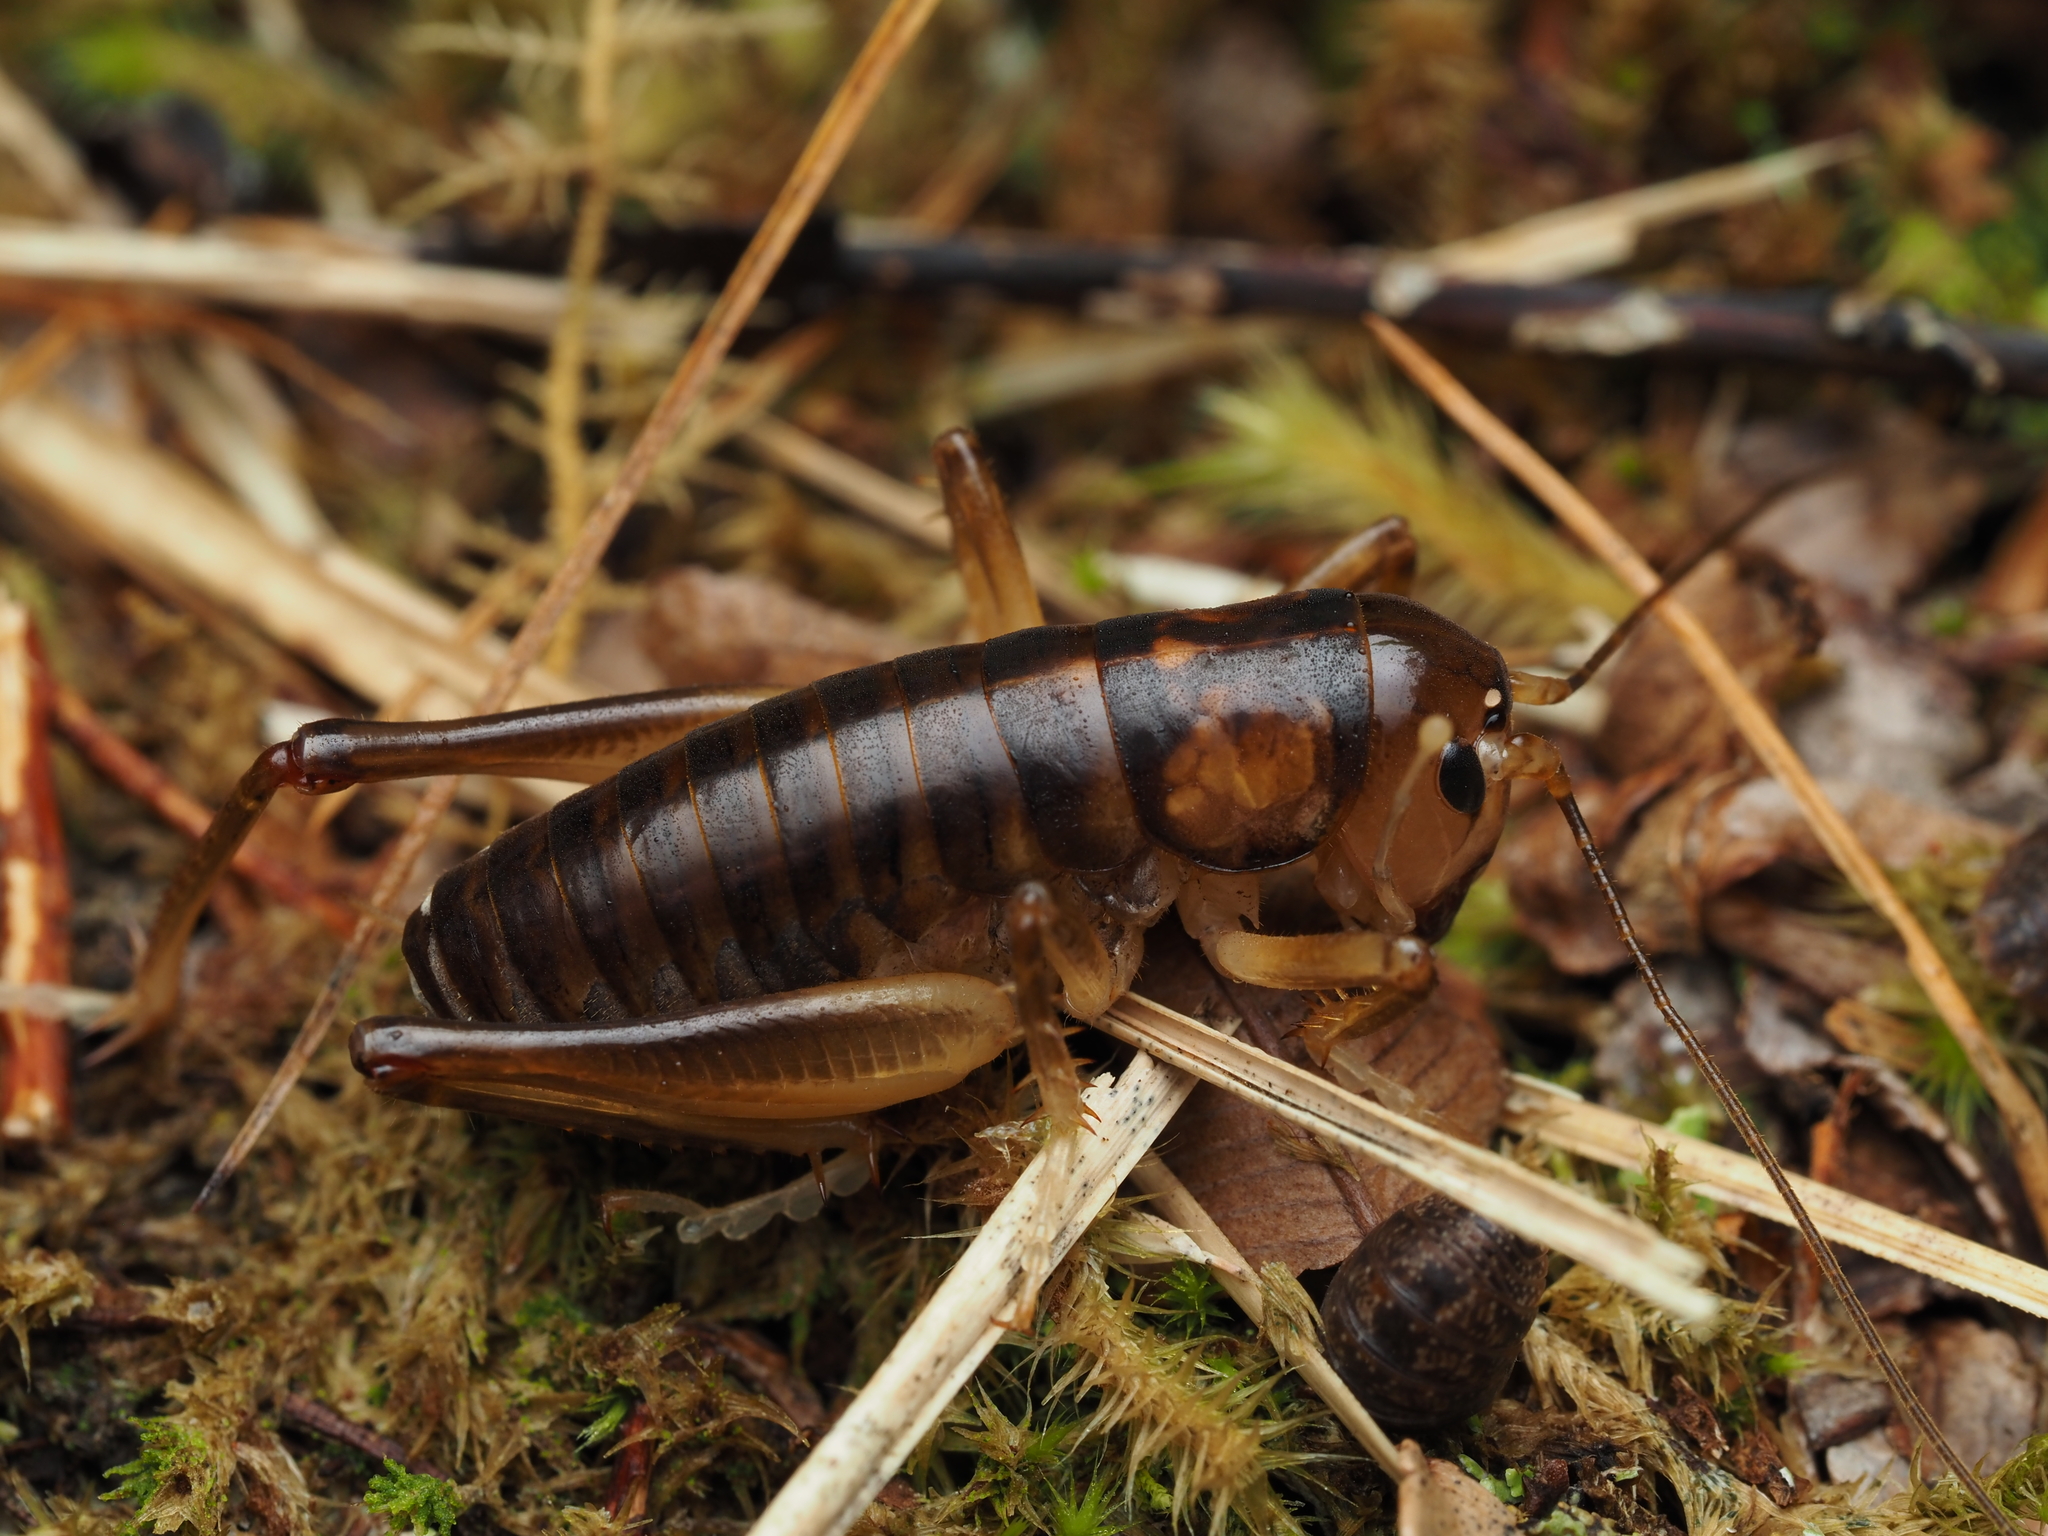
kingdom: Animalia
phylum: Arthropoda
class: Insecta
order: Orthoptera
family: Anostostomatidae
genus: Hemiandrus
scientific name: Hemiandrus pallitarsis
